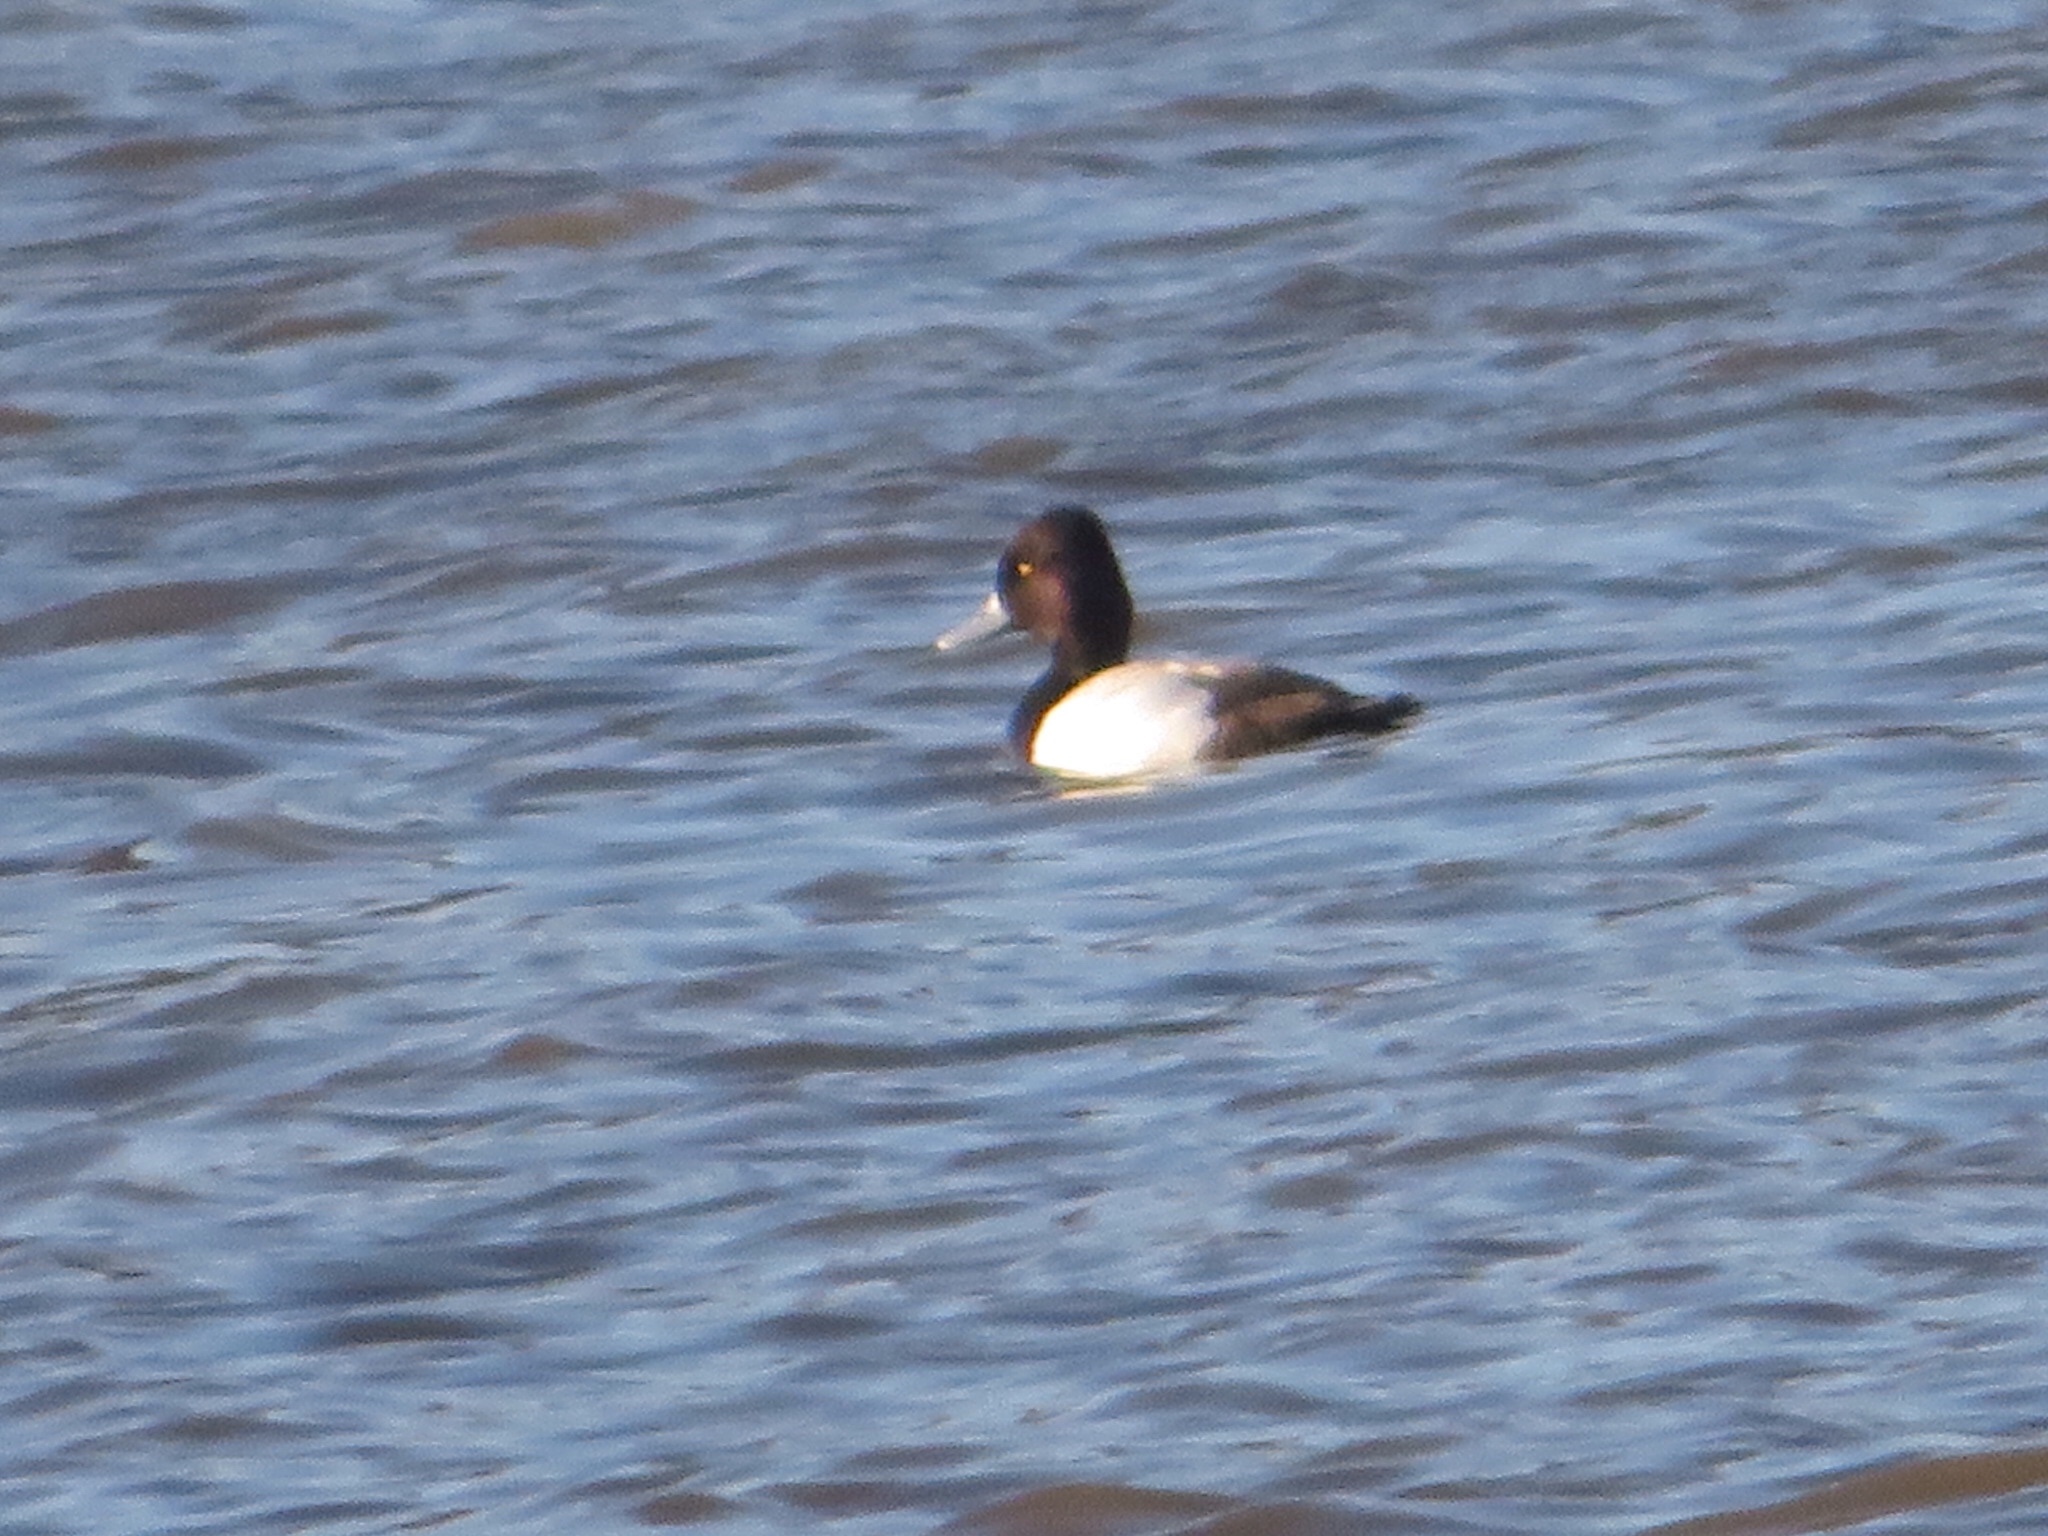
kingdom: Animalia
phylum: Chordata
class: Aves
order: Anseriformes
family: Anatidae
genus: Aythya
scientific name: Aythya affinis
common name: Lesser scaup
